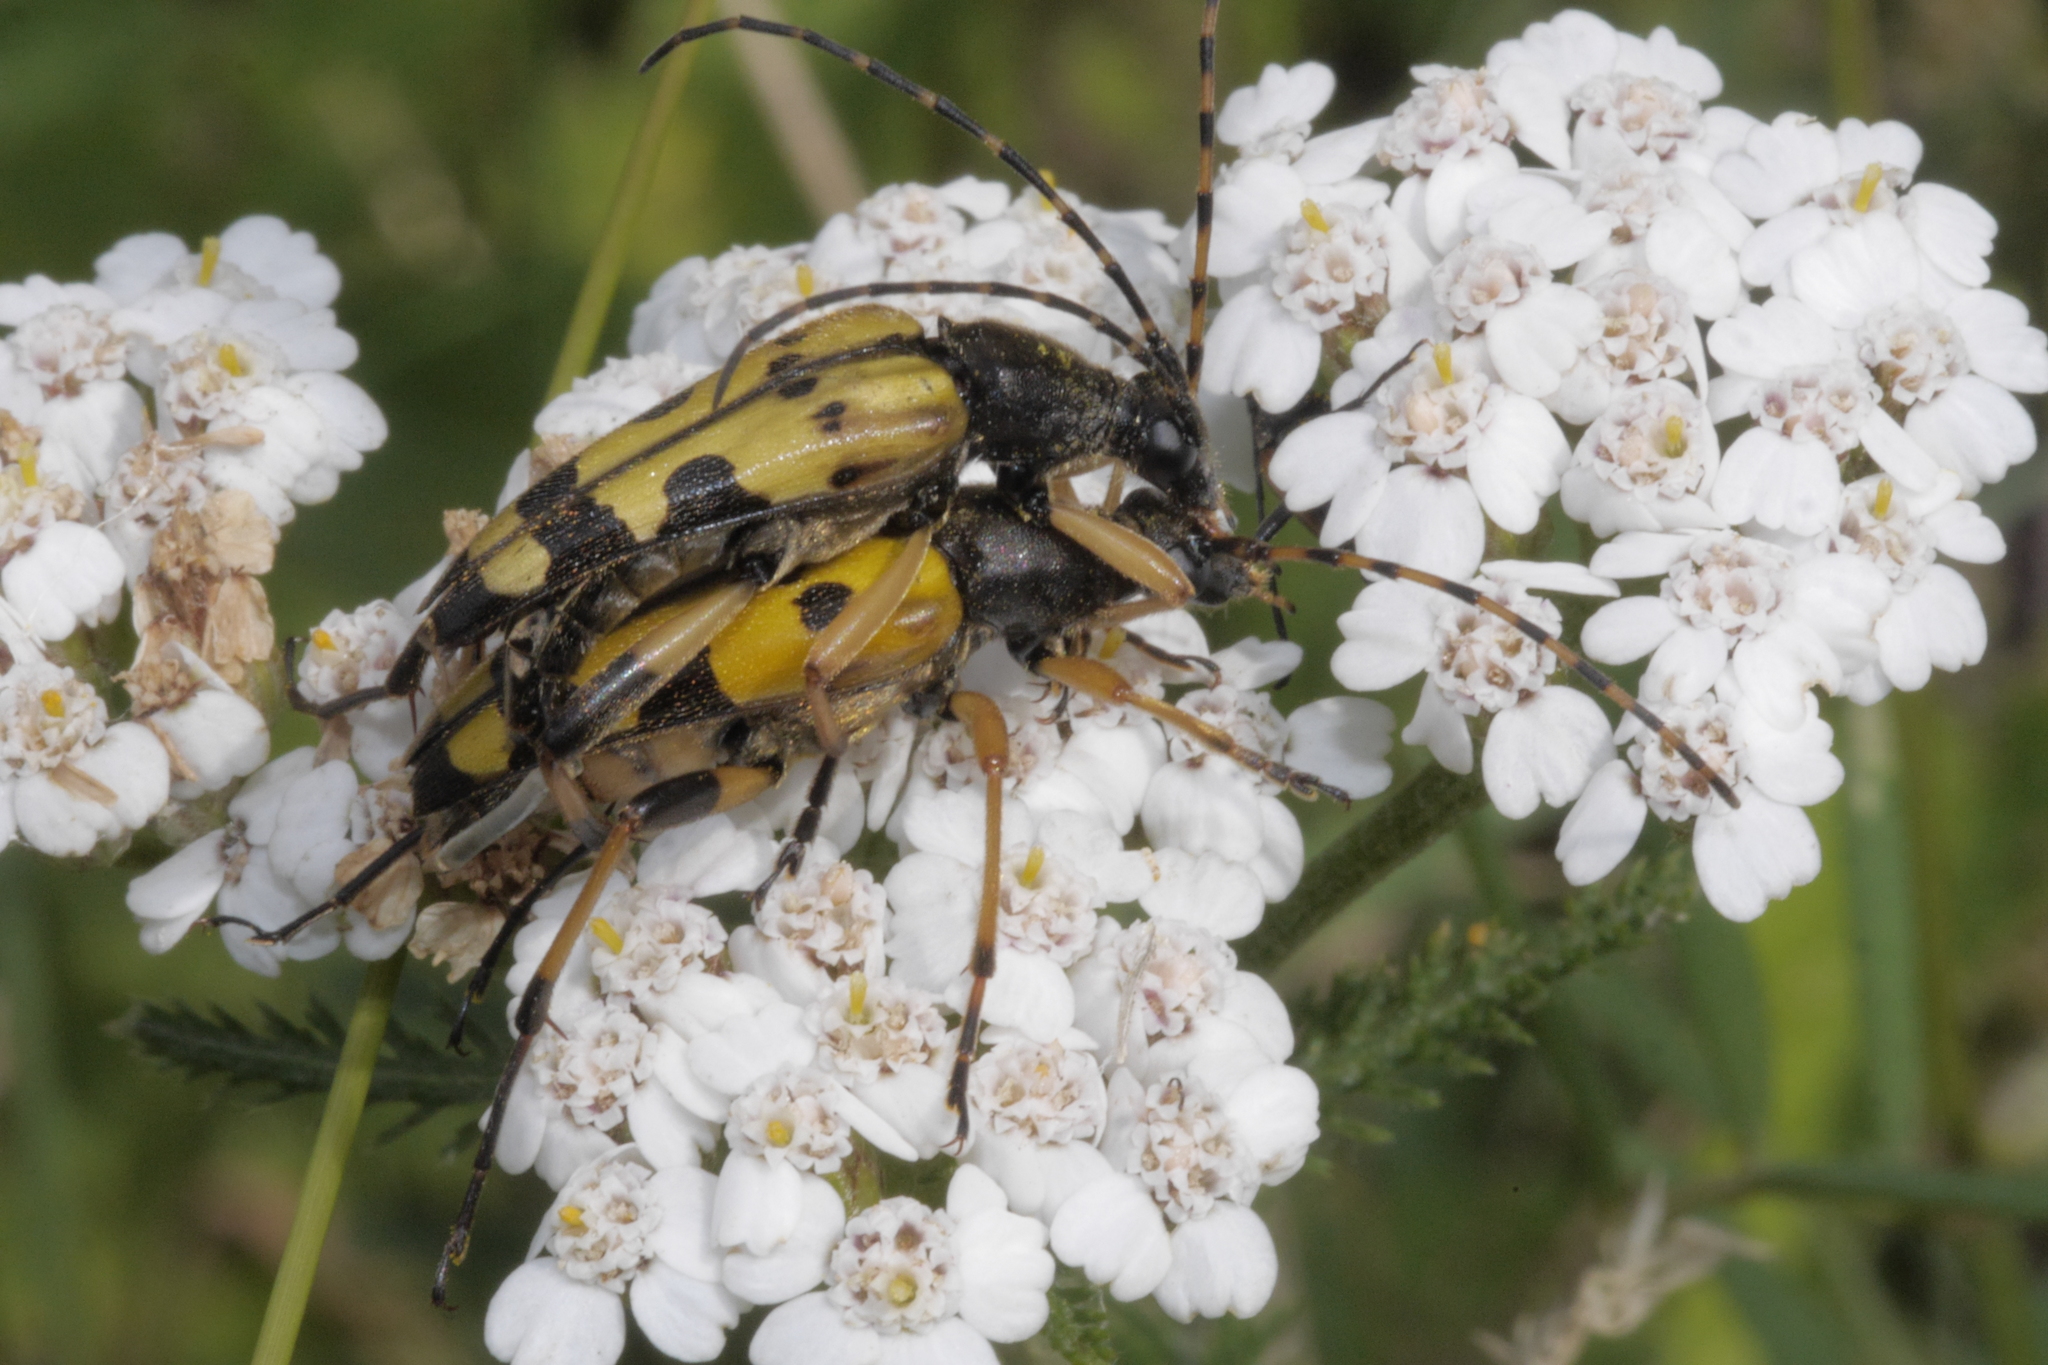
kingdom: Animalia
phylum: Arthropoda
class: Insecta
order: Coleoptera
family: Cerambycidae
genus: Rutpela
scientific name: Rutpela maculata
